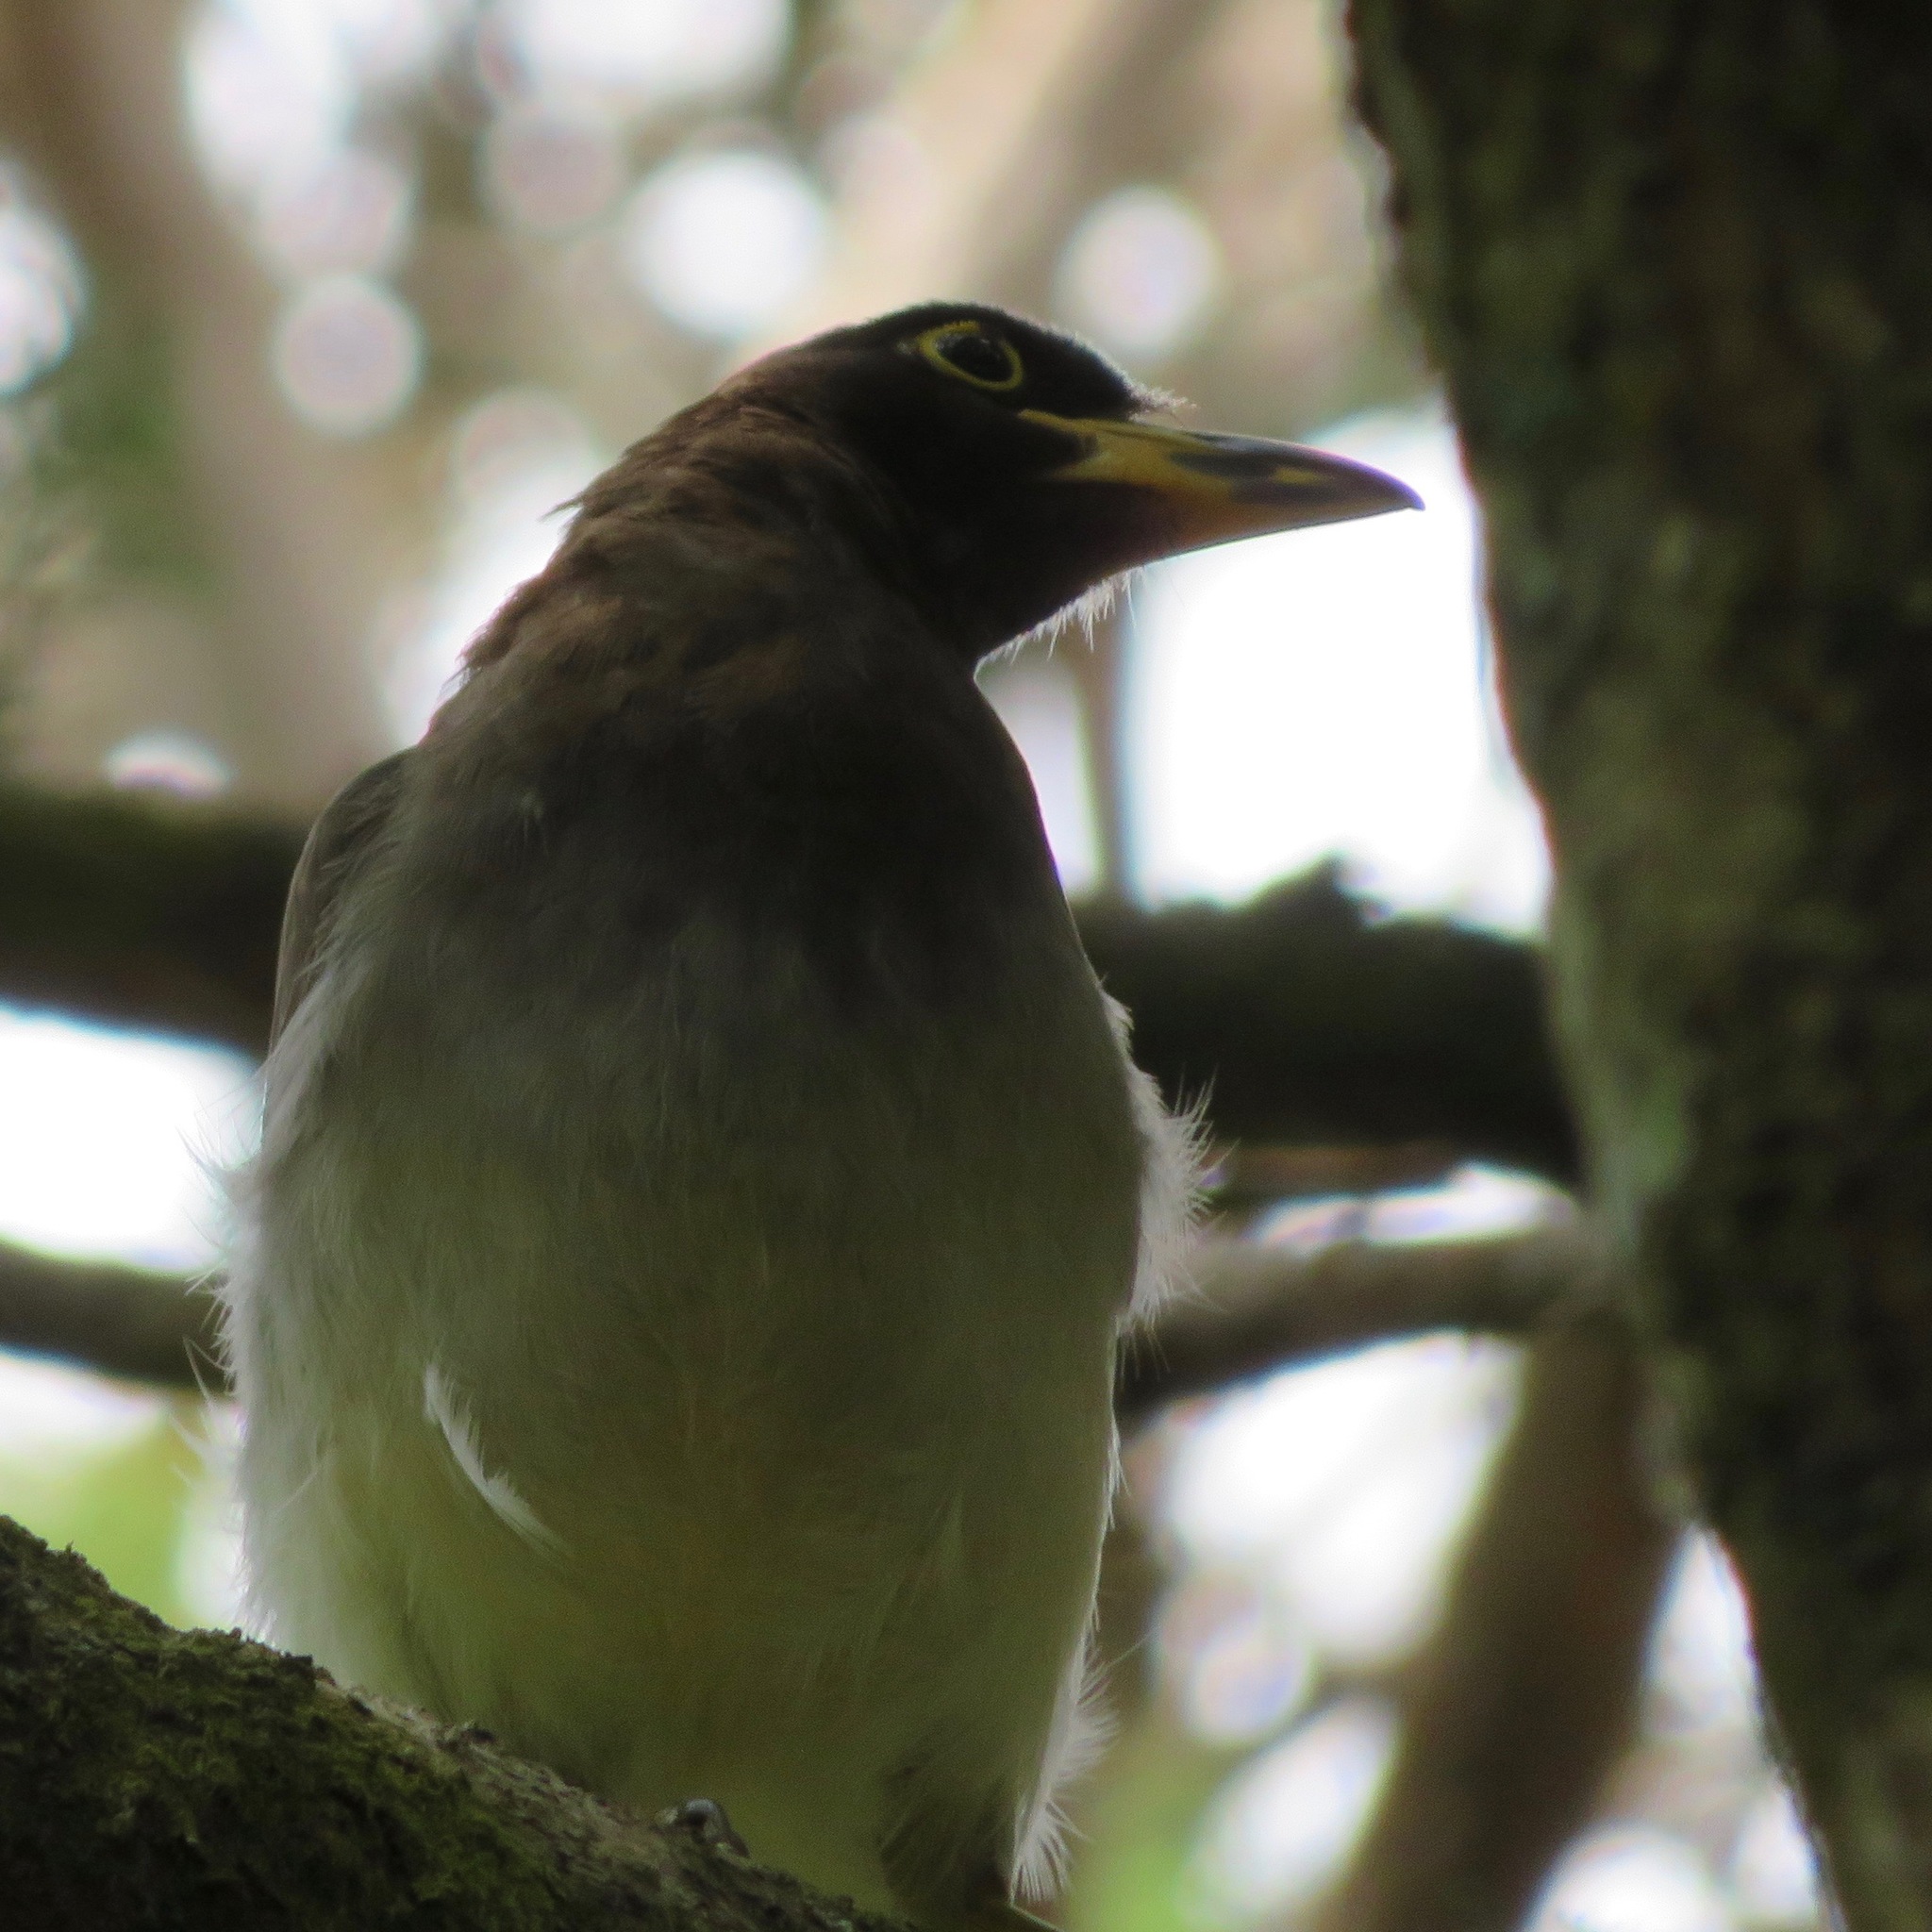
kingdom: Animalia
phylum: Chordata
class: Aves
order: Passeriformes
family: Corvidae
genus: Psilorhinus
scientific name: Psilorhinus morio
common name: Brown jay
